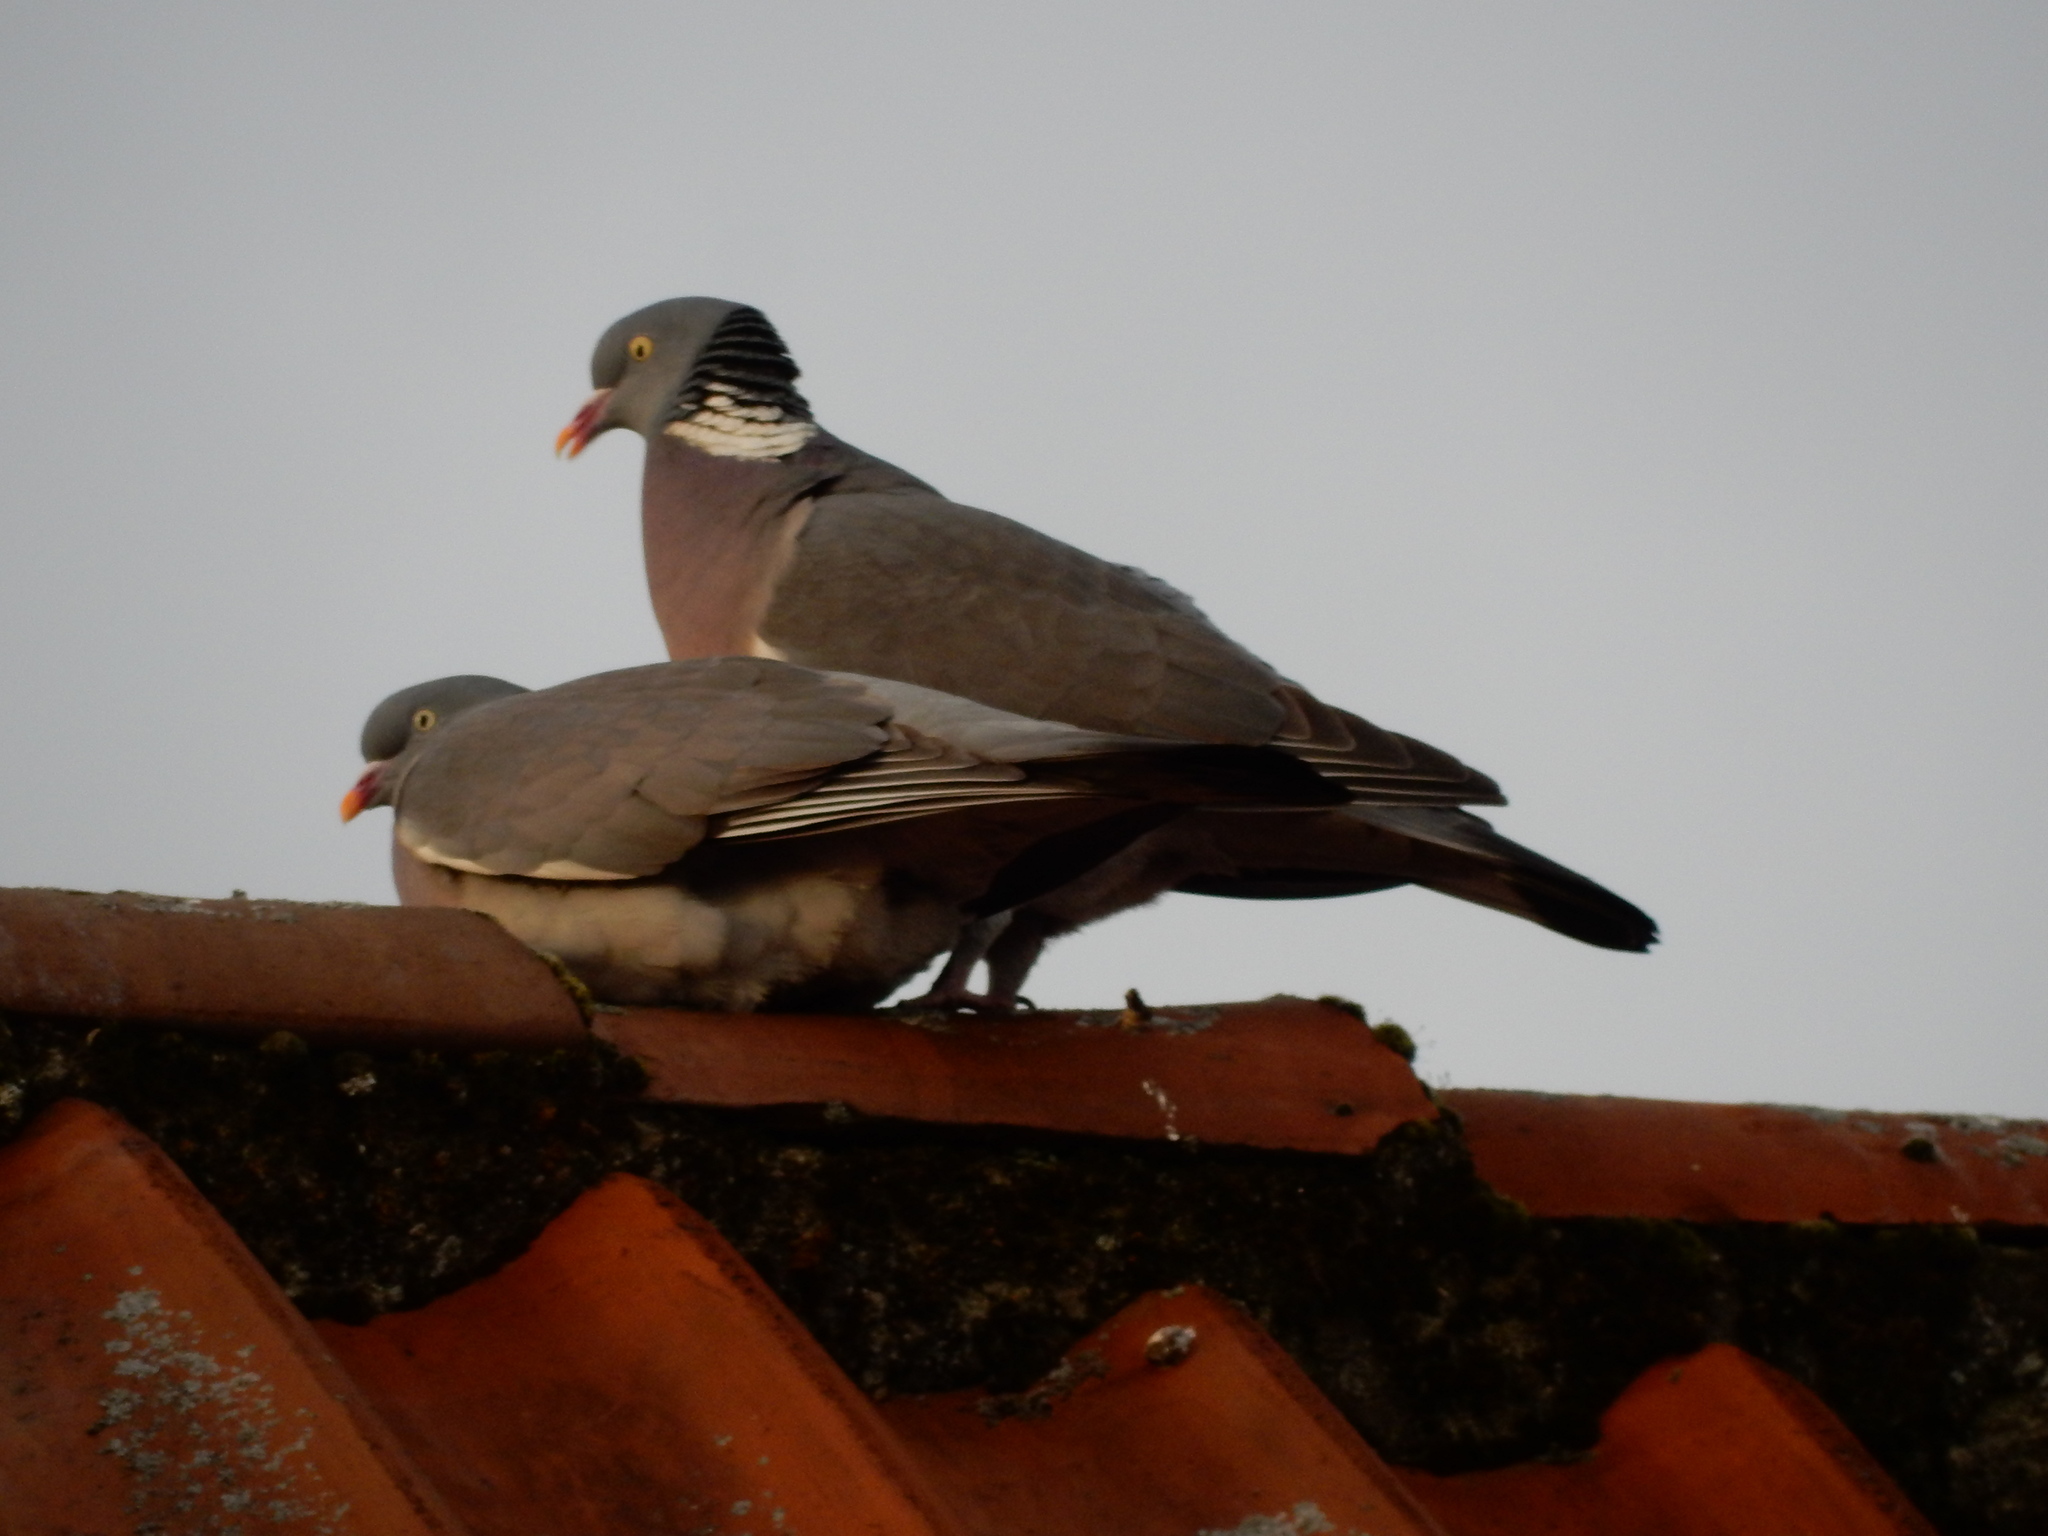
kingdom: Animalia
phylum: Chordata
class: Aves
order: Columbiformes
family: Columbidae
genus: Columba
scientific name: Columba palumbus
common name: Common wood pigeon
